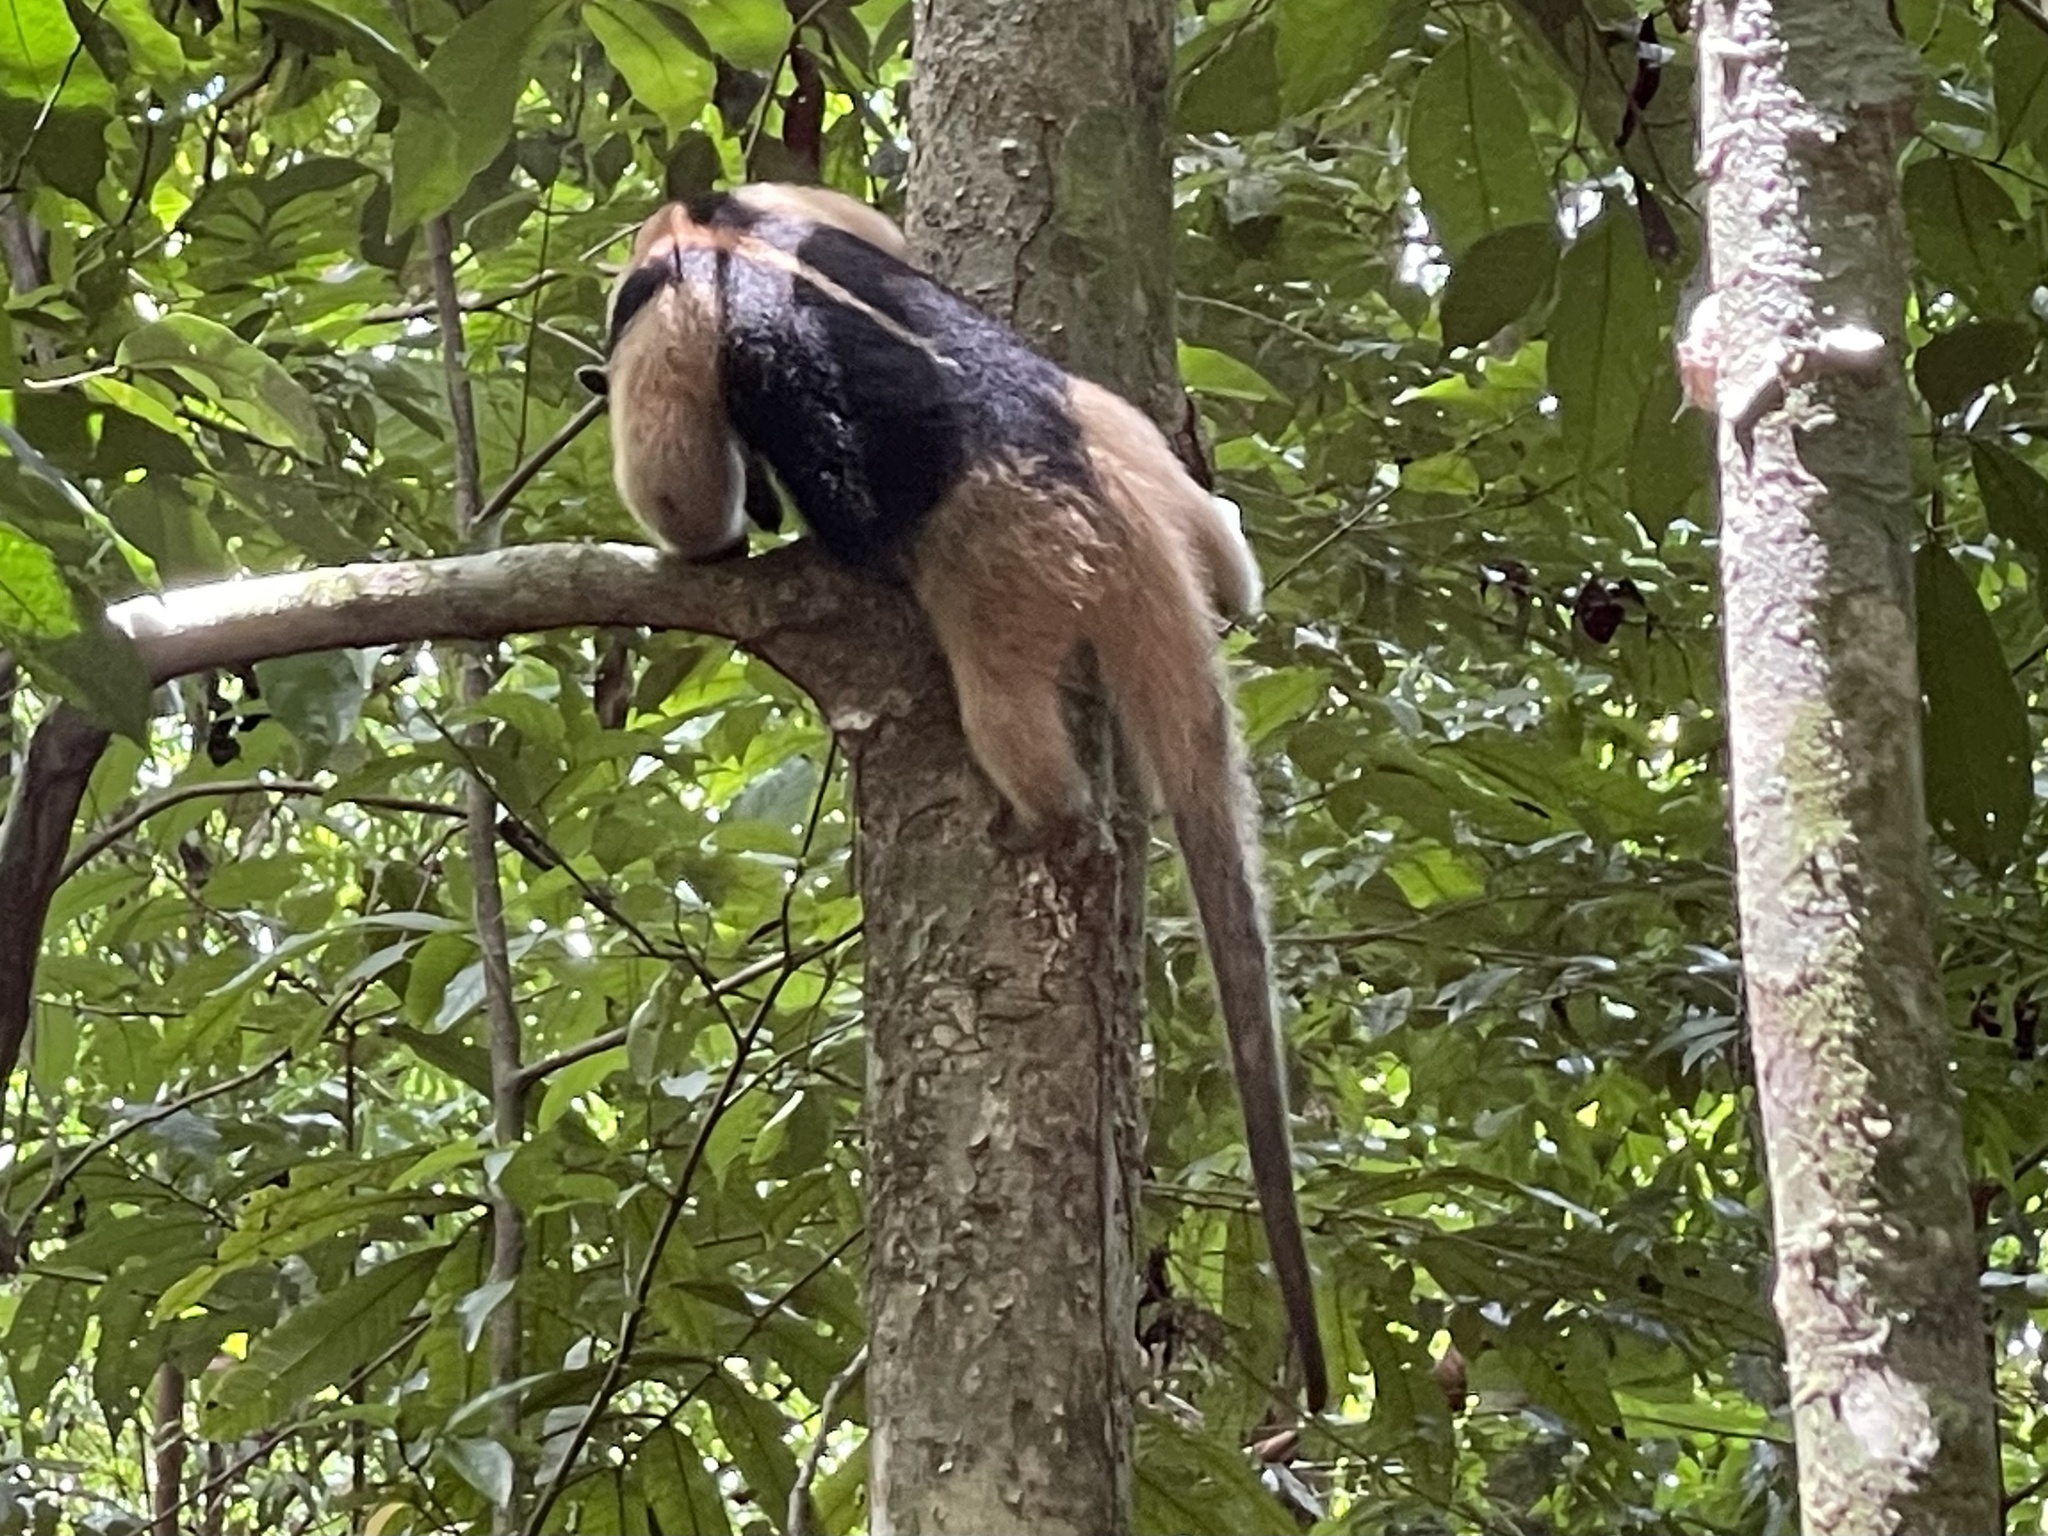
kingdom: Animalia
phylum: Chordata
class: Mammalia
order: Pilosa
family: Myrmecophagidae
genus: Tamandua
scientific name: Tamandua mexicana
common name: Northern tamandua
